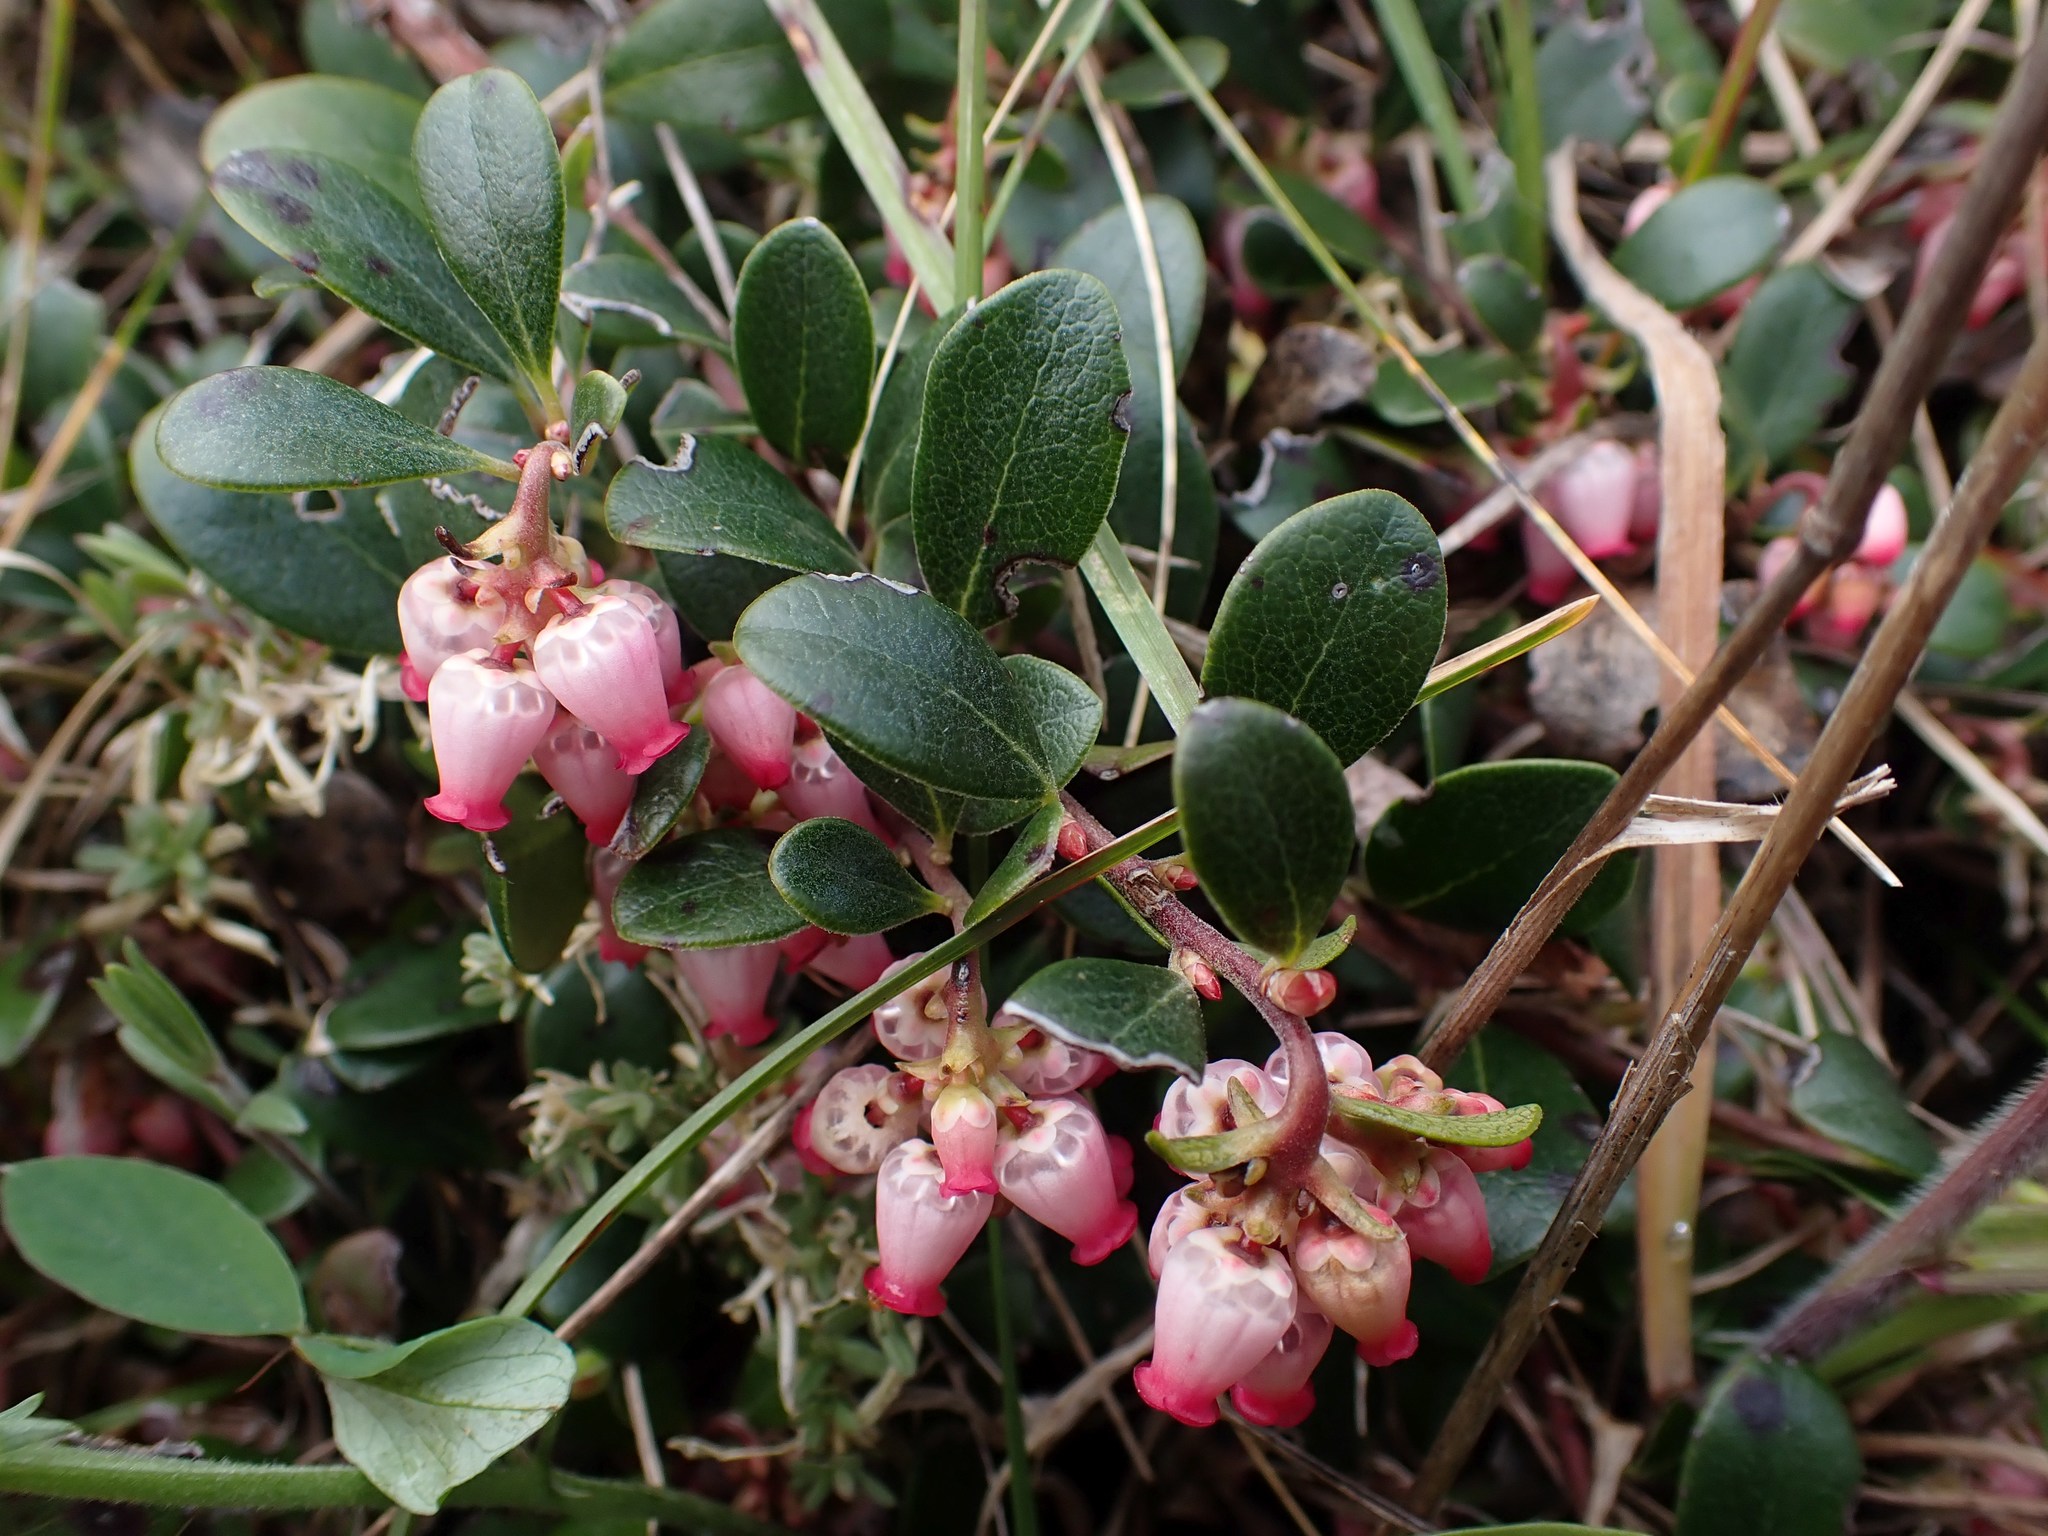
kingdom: Plantae
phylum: Tracheophyta
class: Magnoliopsida
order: Ericales
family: Ericaceae
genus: Arctostaphylos
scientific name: Arctostaphylos uva-ursi
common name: Bearberry
